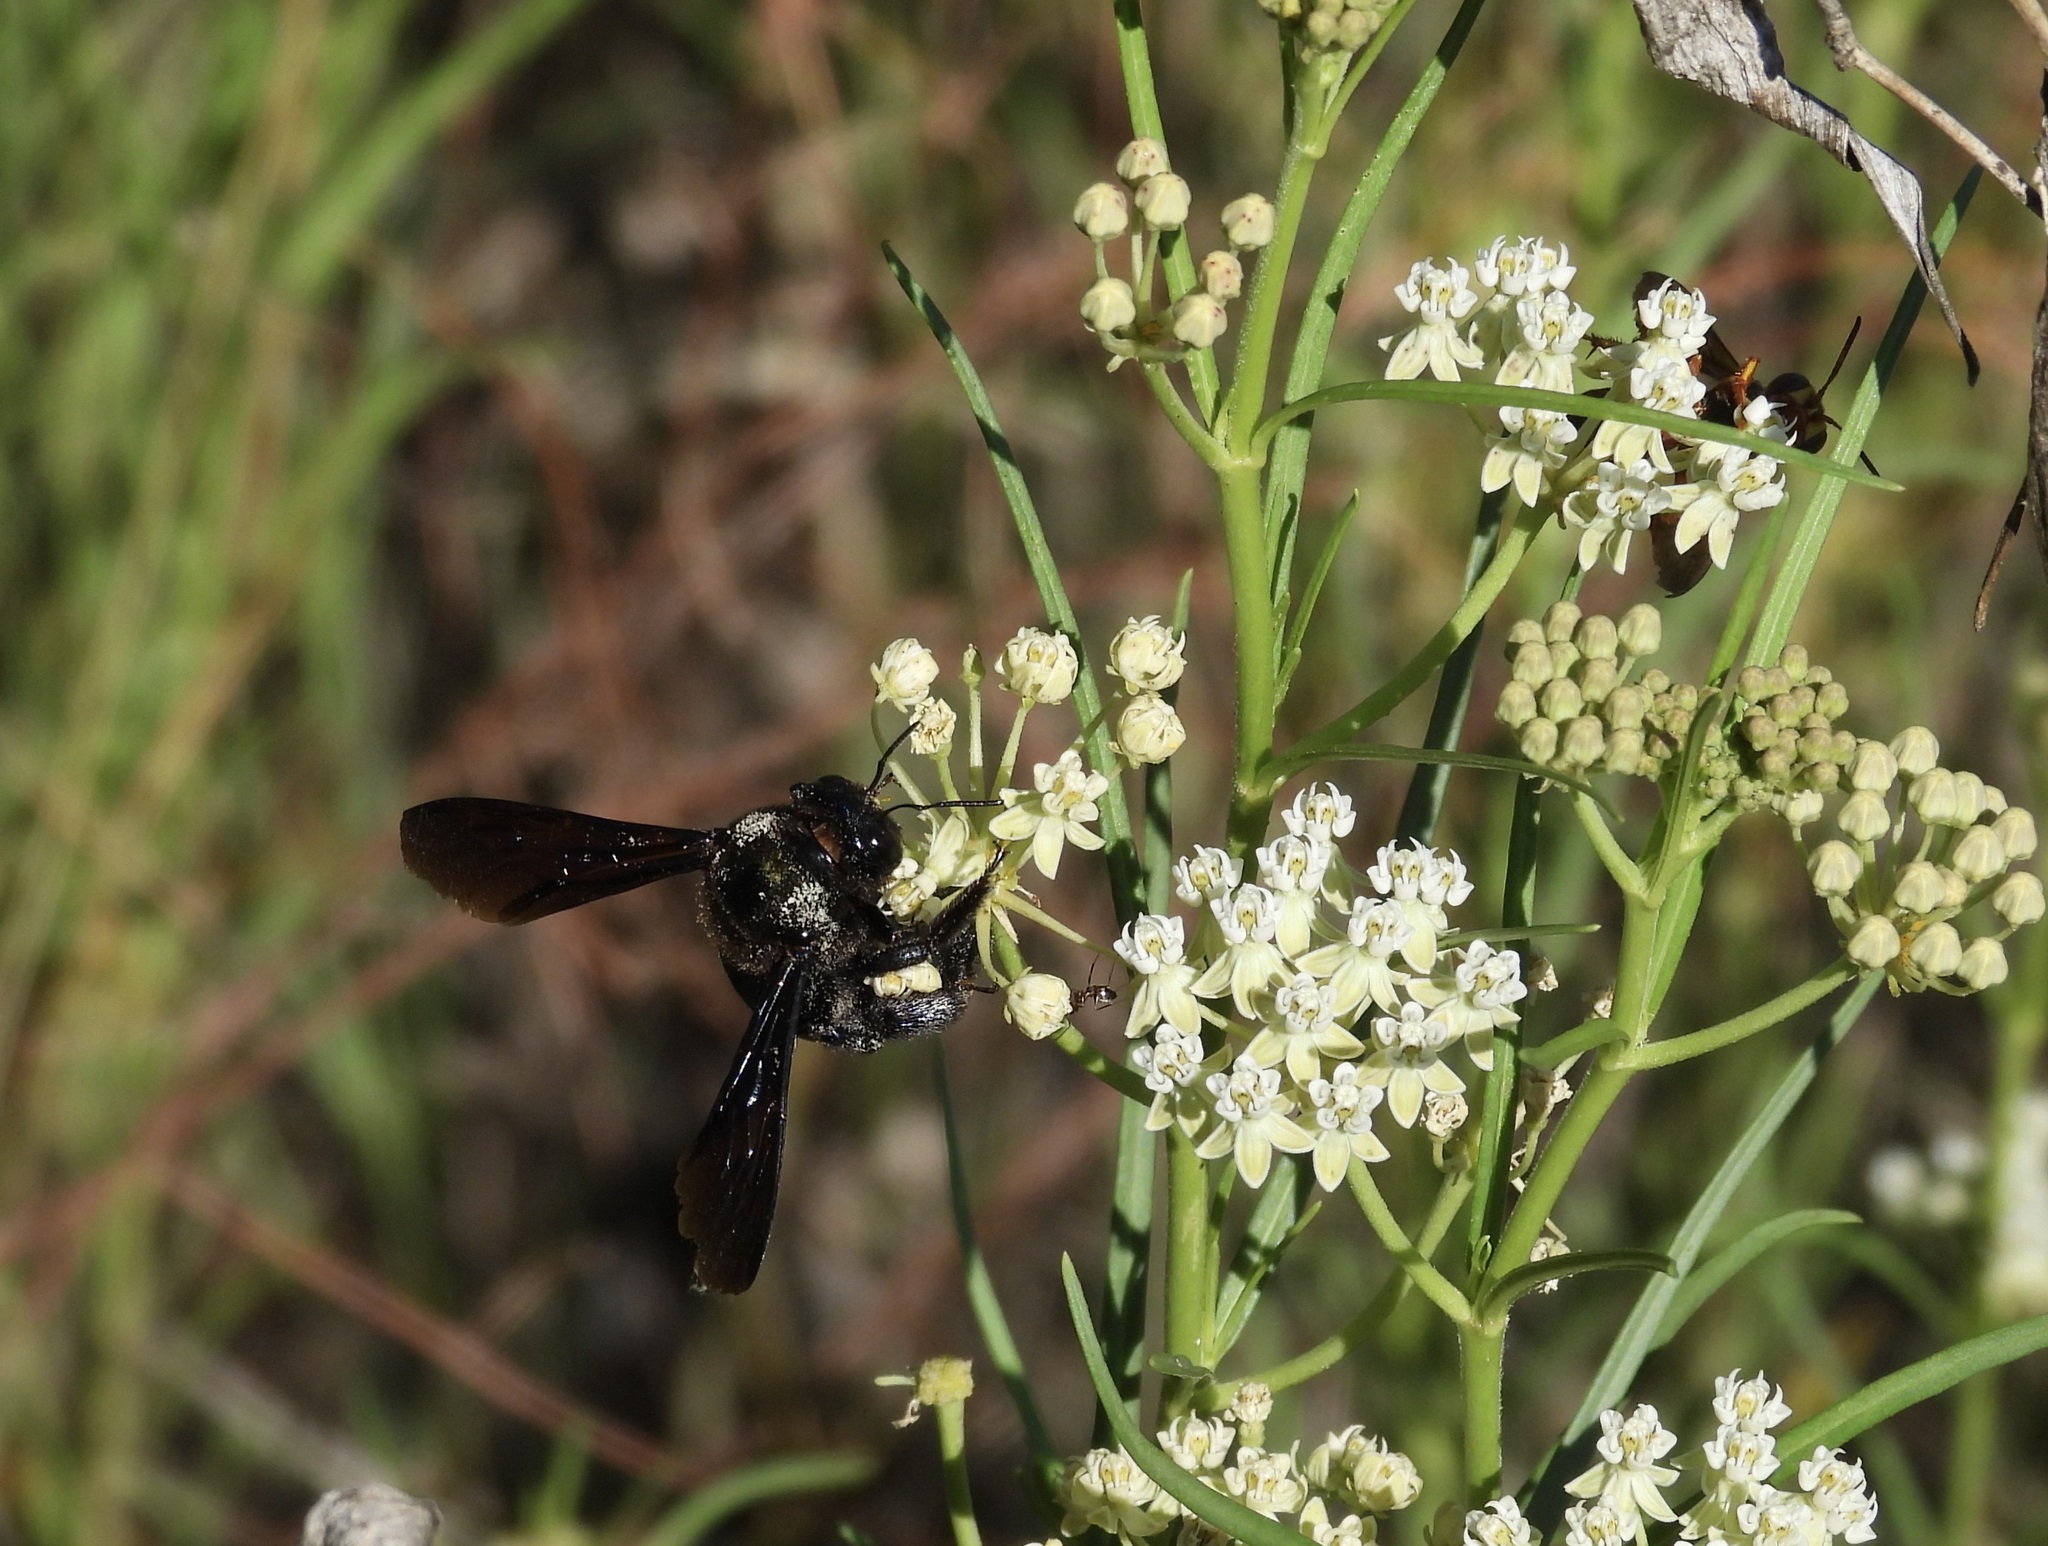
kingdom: Animalia
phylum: Arthropoda
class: Insecta
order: Hymenoptera
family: Apidae
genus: Xylocopa
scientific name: Xylocopa californica
